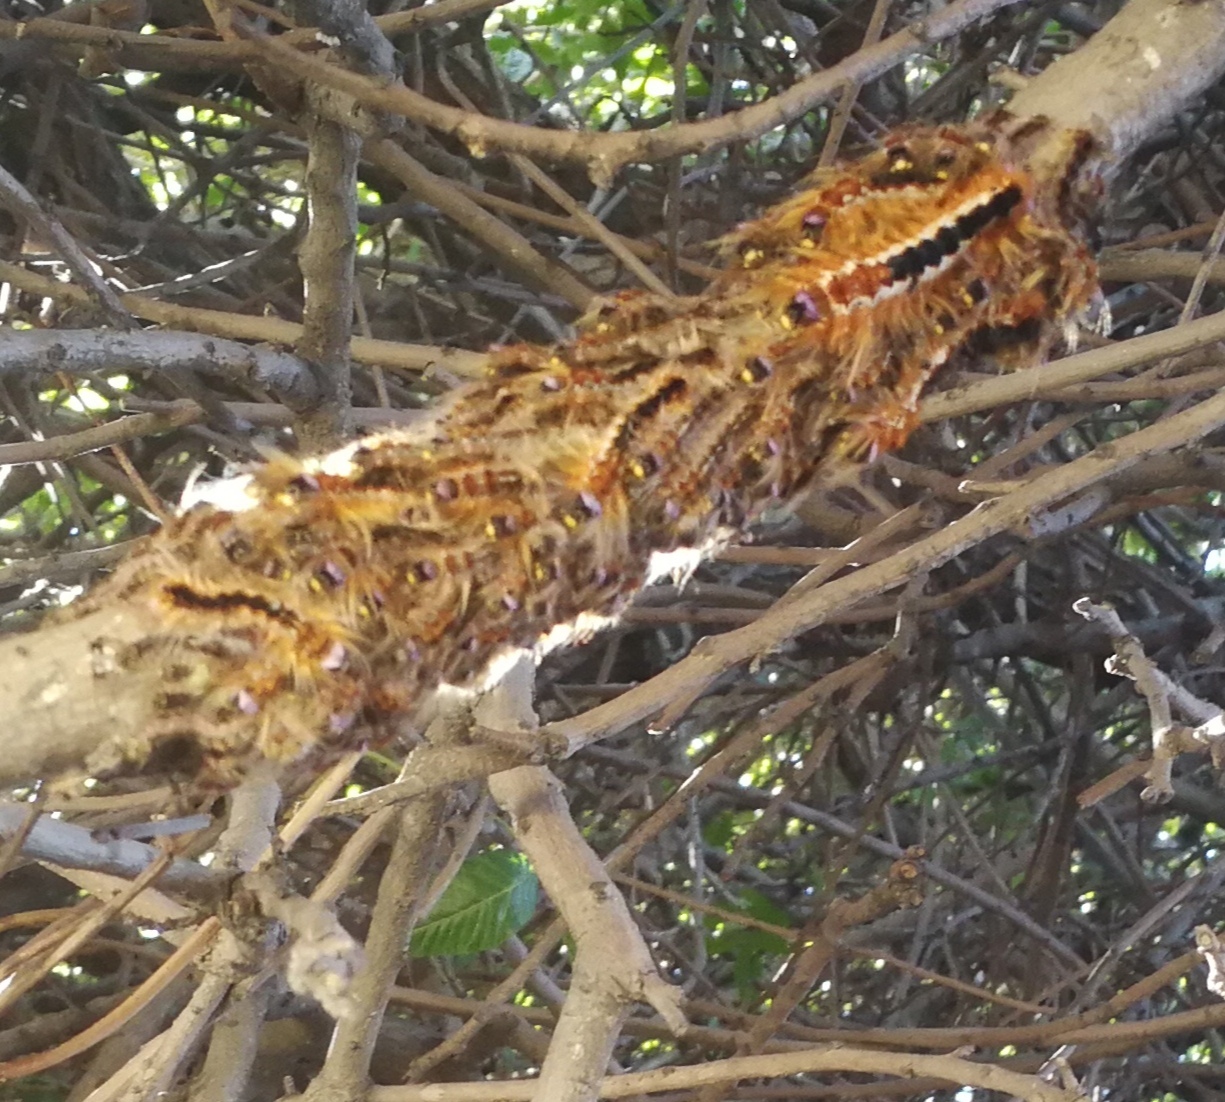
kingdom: Animalia
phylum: Arthropoda
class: Insecta
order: Lepidoptera
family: Lasiocampidae
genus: Eutricha
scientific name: Eutricha capensis
